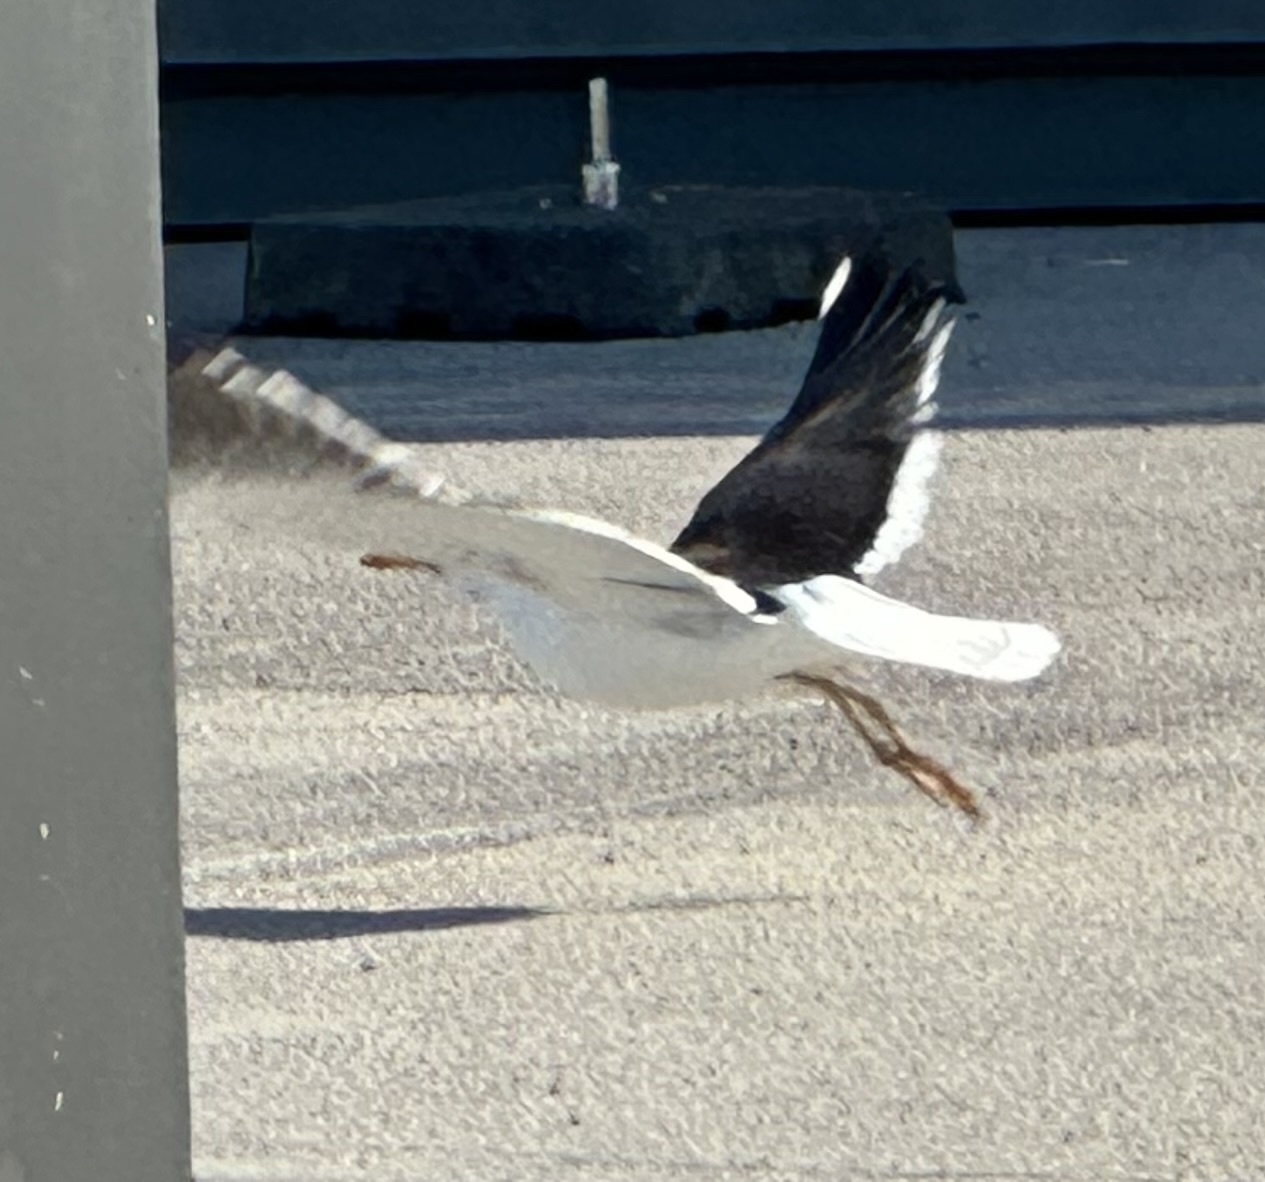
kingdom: Animalia
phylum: Chordata
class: Aves
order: Charadriiformes
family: Laridae
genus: Larus
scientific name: Larus fuscus
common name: Lesser black-backed gull
